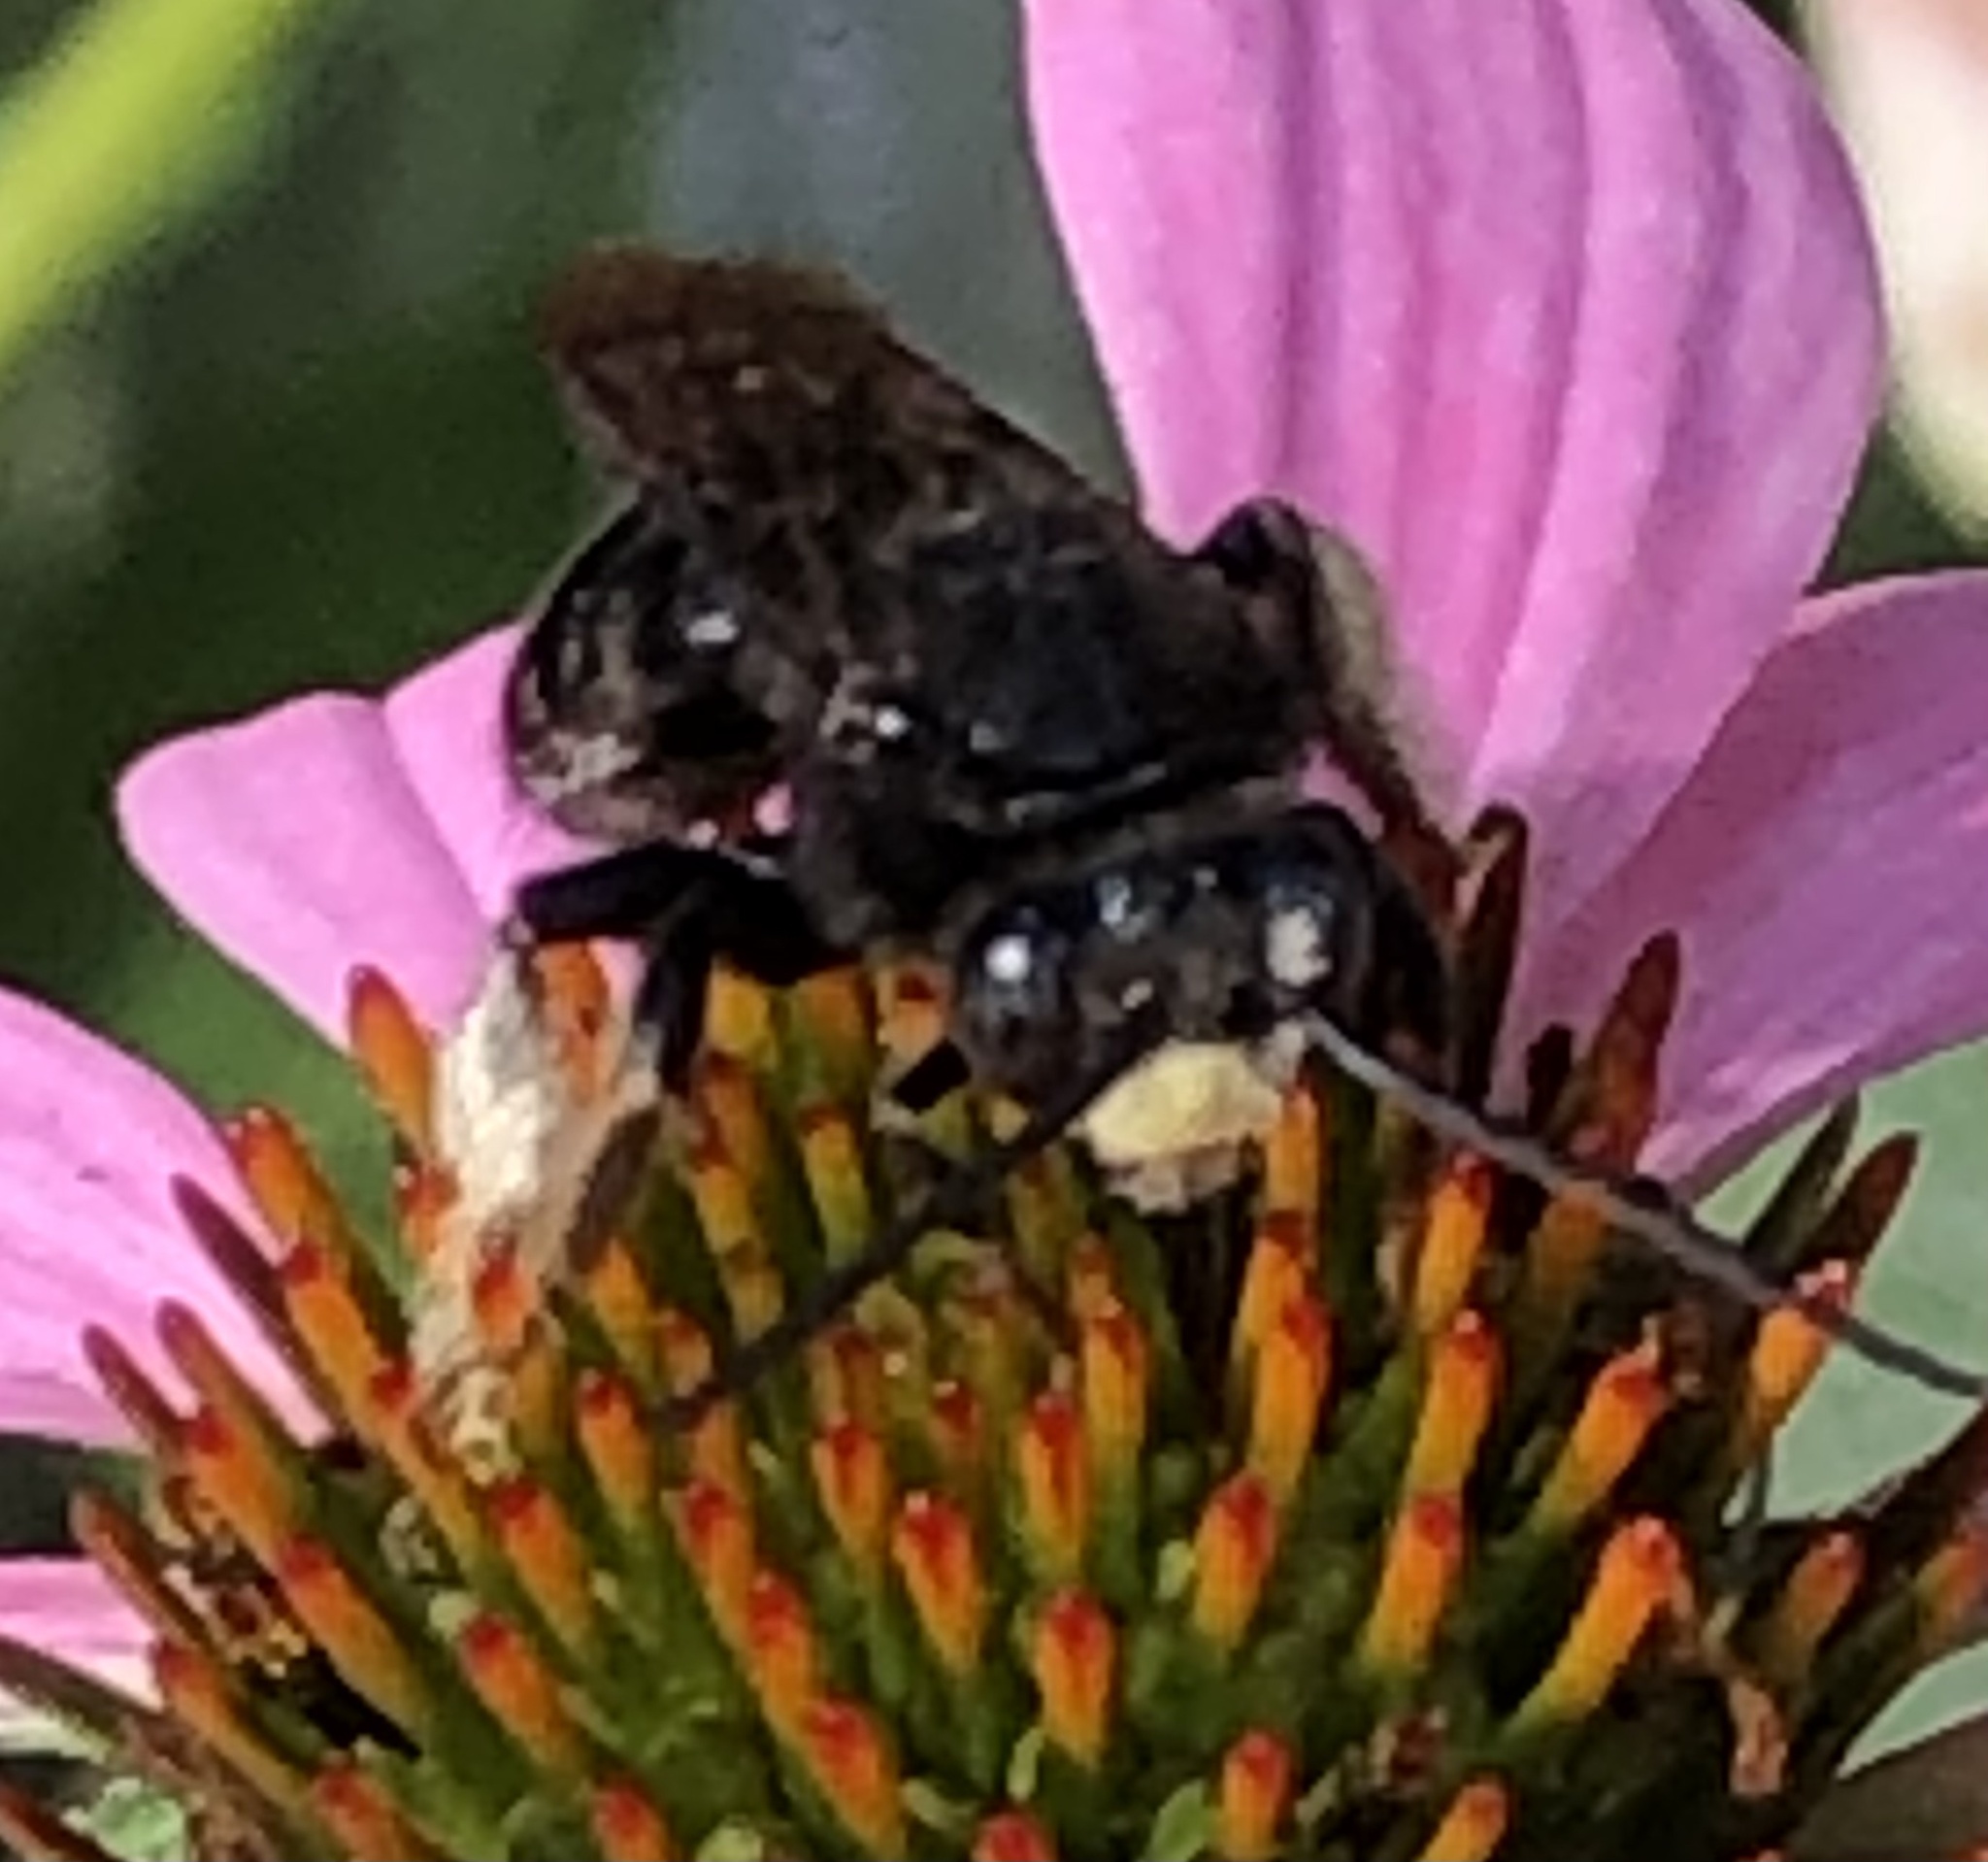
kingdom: Animalia
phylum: Arthropoda
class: Insecta
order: Hymenoptera
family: Apidae
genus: Melissodes
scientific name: Melissodes bimaculatus
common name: Two-spotted long-horned bee
